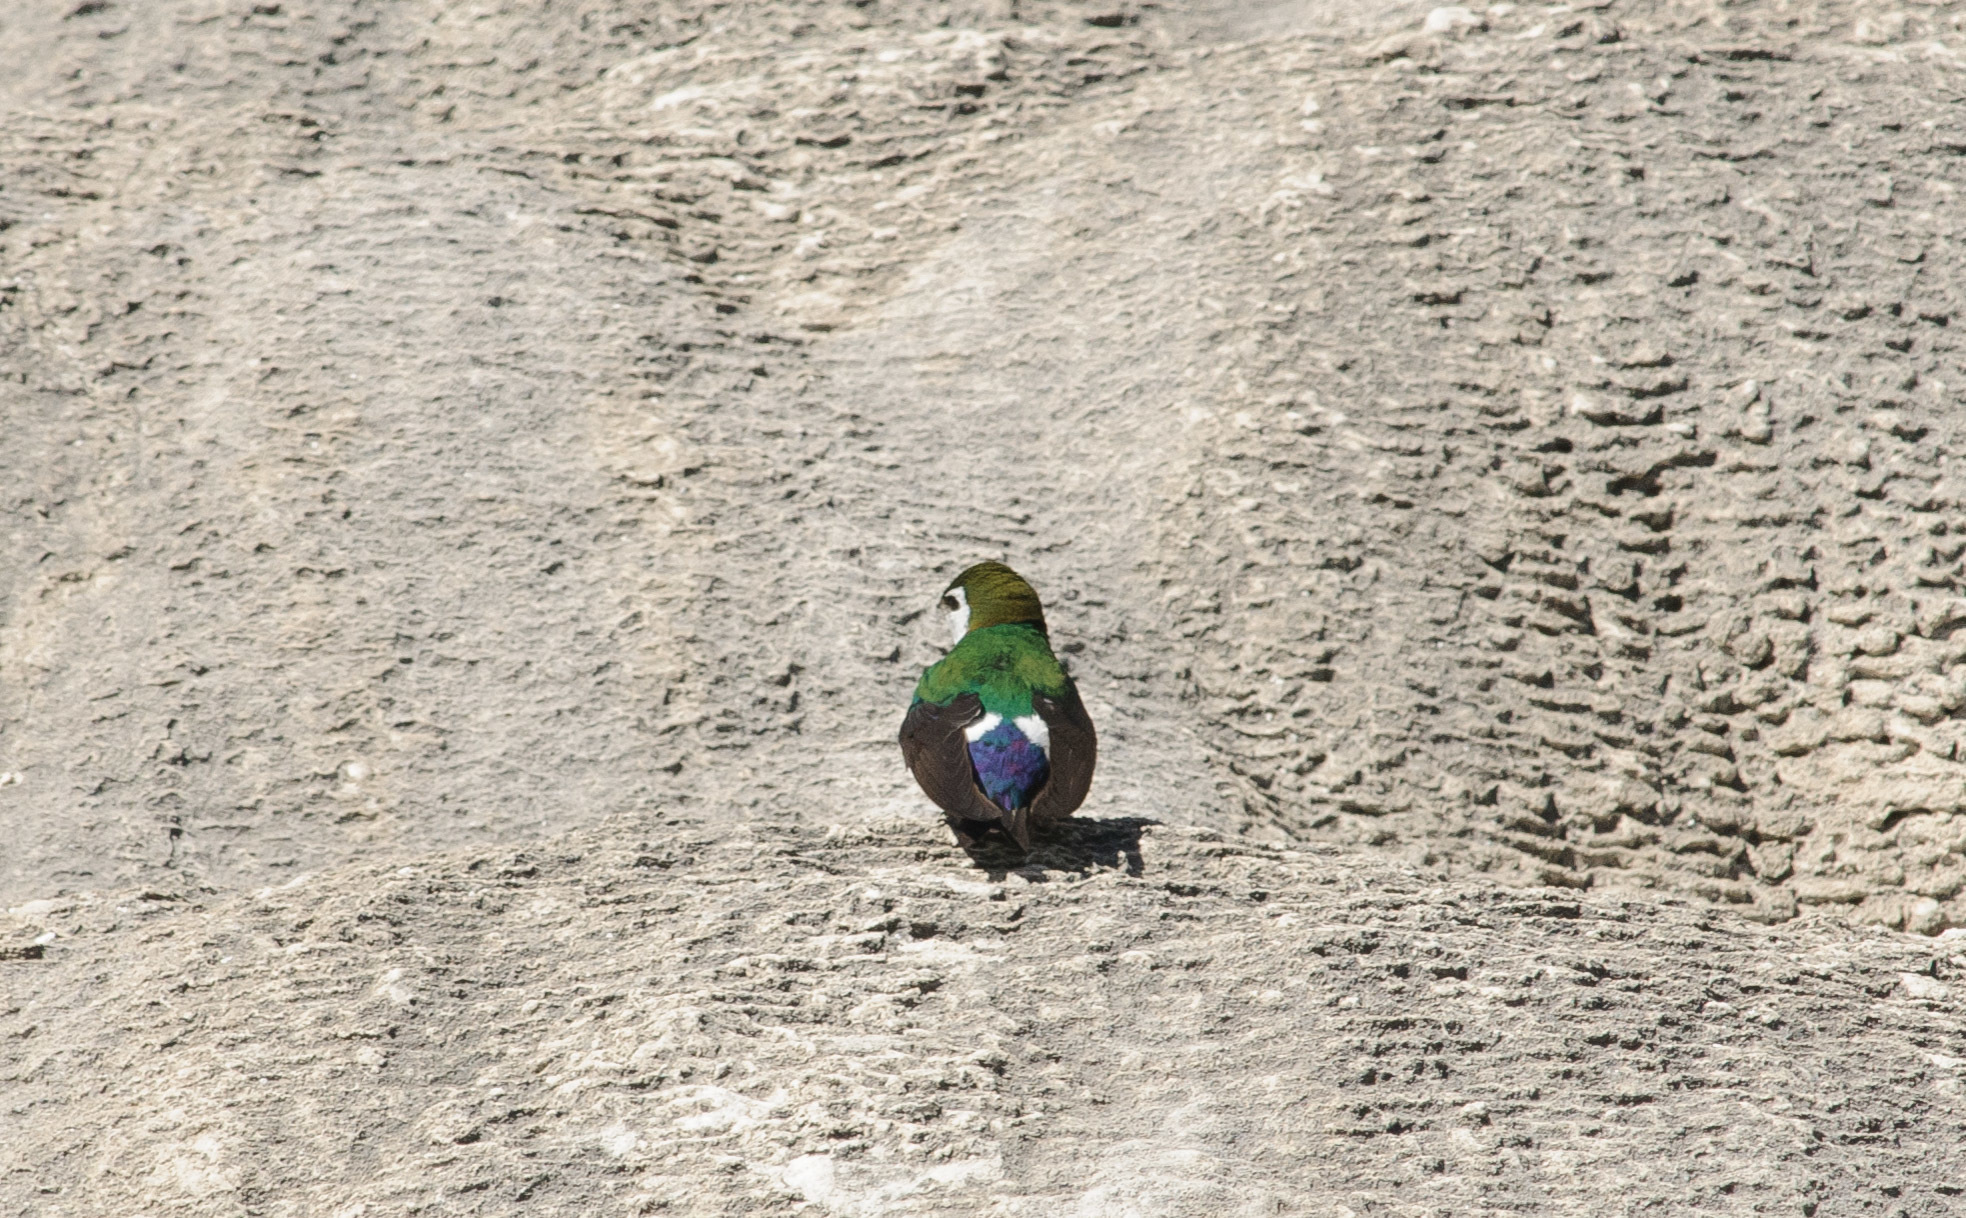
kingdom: Animalia
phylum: Chordata
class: Aves
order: Passeriformes
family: Hirundinidae
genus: Tachycineta
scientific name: Tachycineta thalassina
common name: Violet-green swallow
